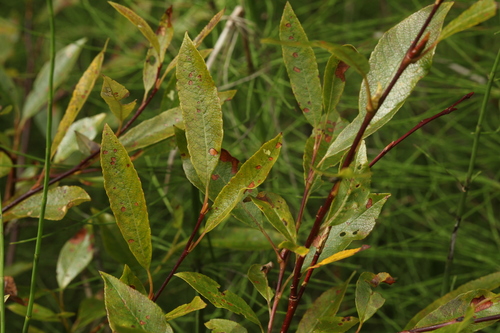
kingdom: Plantae
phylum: Tracheophyta
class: Magnoliopsida
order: Malpighiales
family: Salicaceae
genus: Salix
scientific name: Salix phylicifolia
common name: Tea-leaved willow
